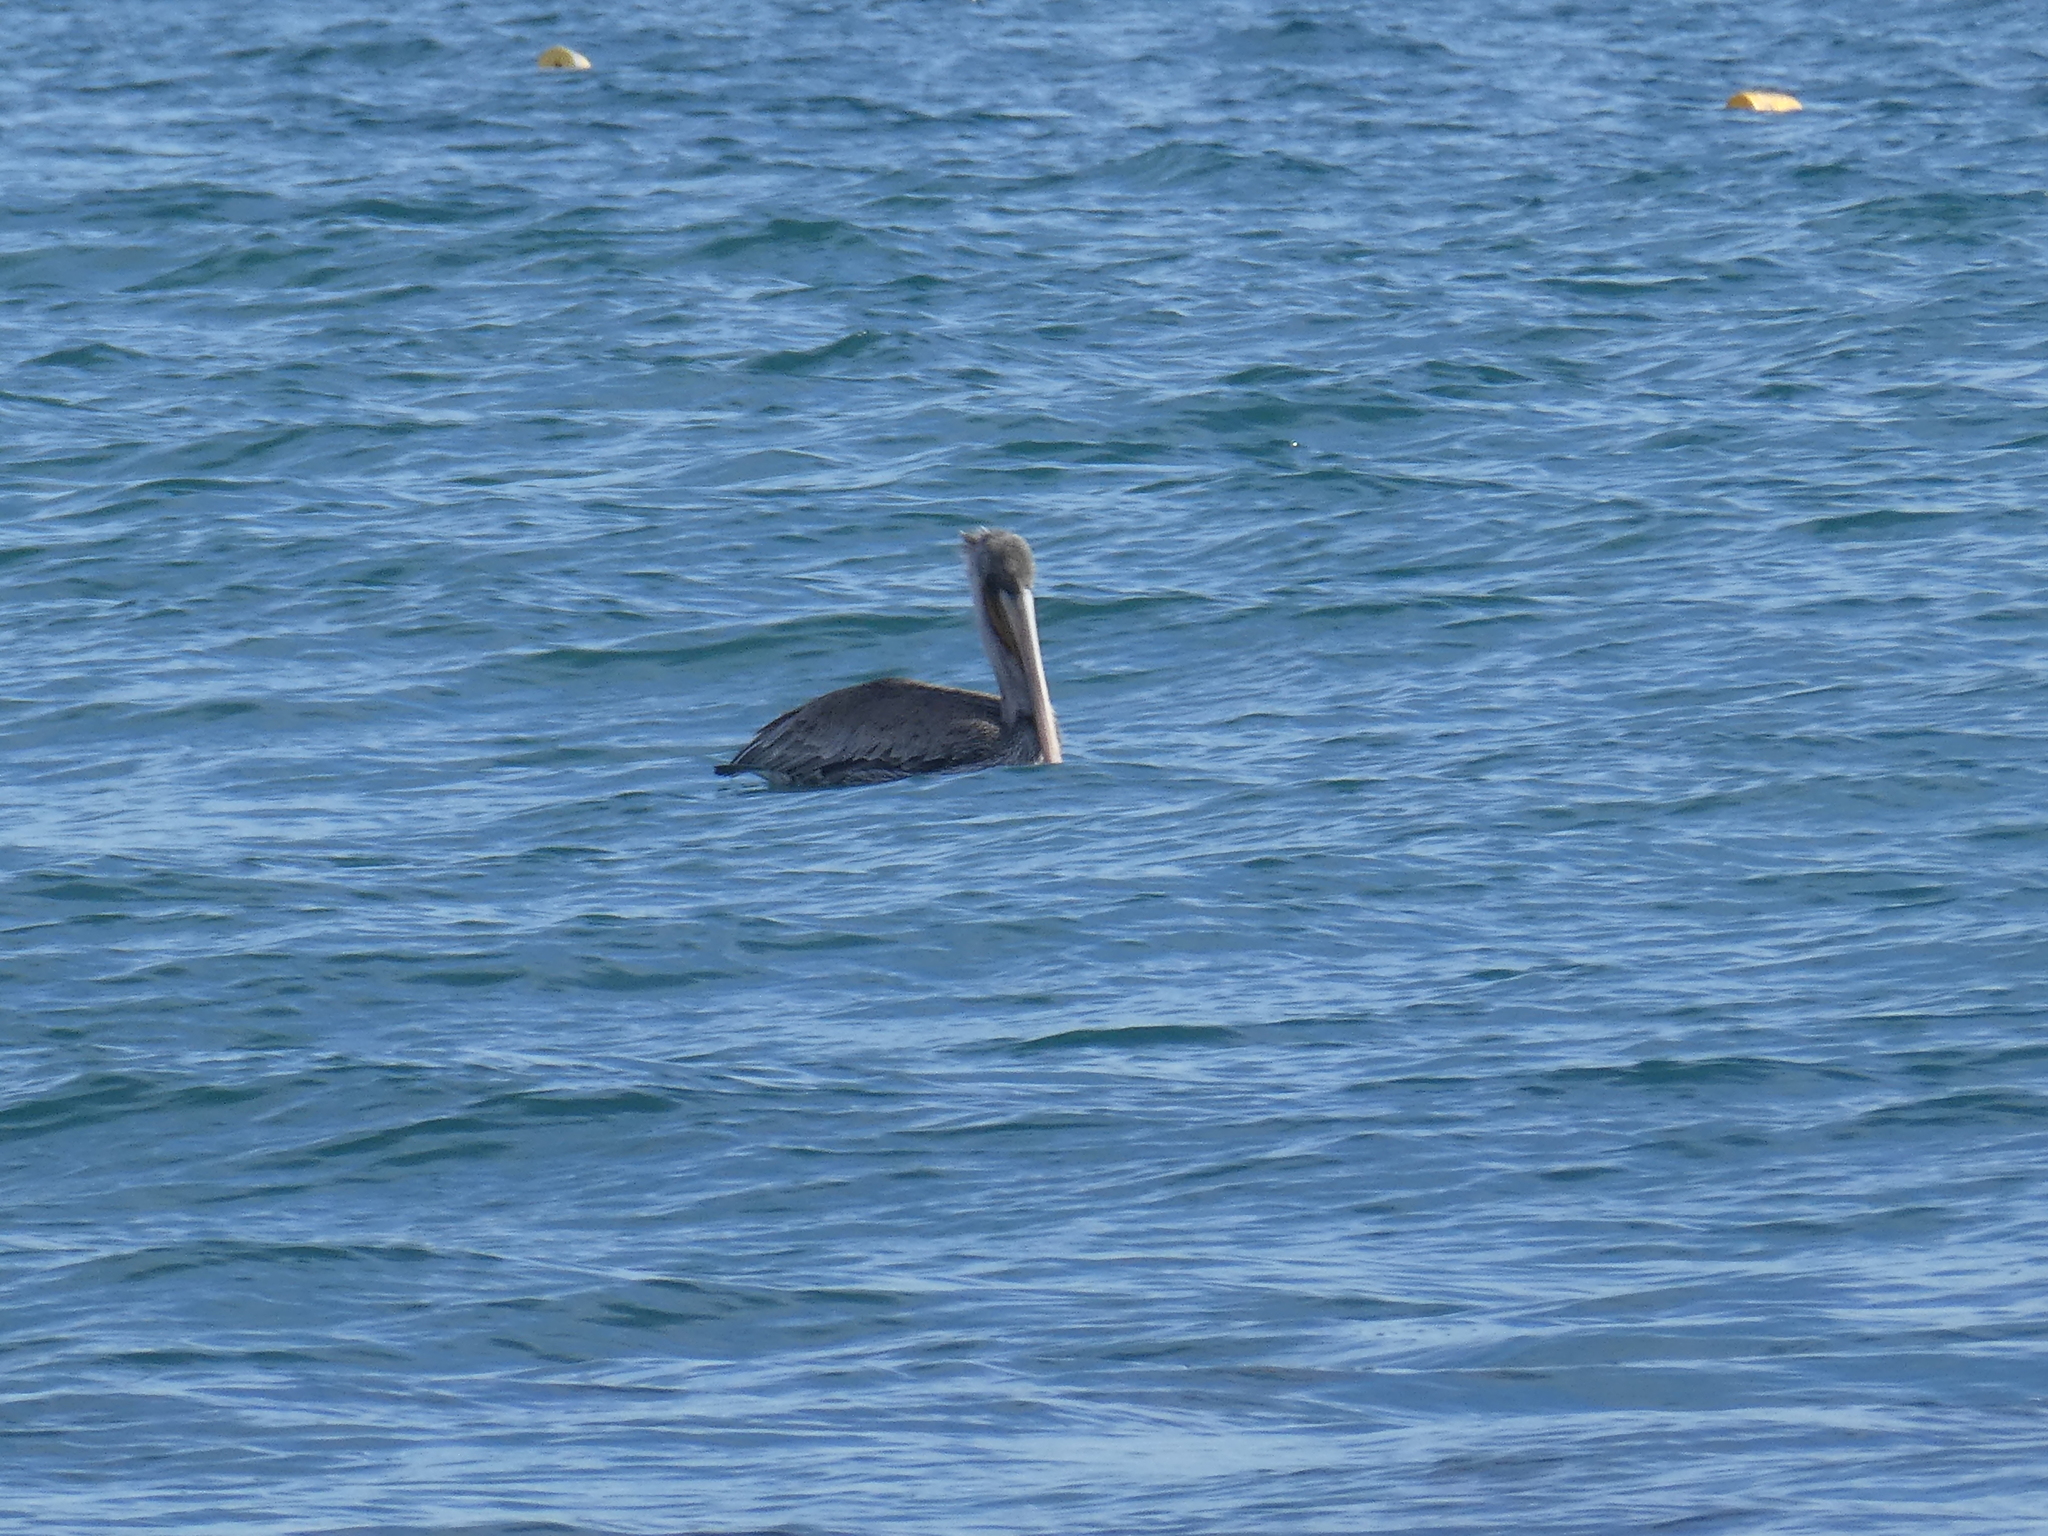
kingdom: Animalia
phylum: Chordata
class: Aves
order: Pelecaniformes
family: Pelecanidae
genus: Pelecanus
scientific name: Pelecanus occidentalis
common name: Brown pelican
